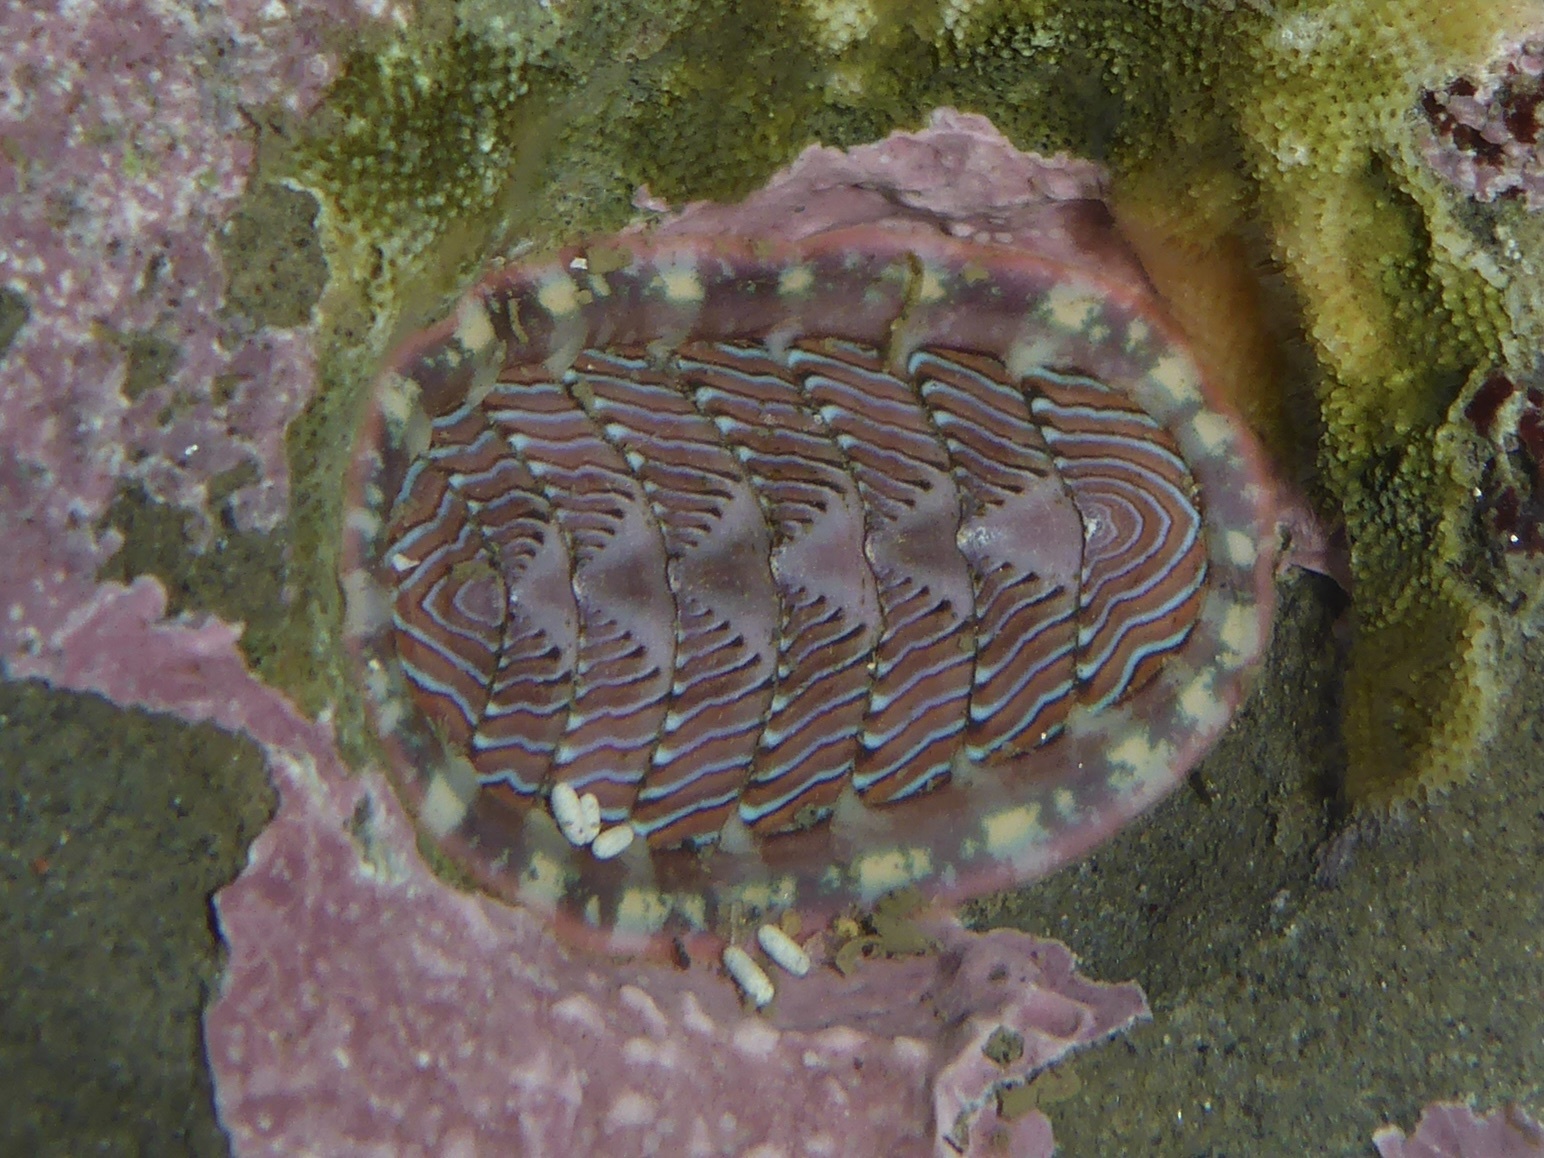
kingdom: Animalia
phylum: Mollusca
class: Polyplacophora
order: Chitonida
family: Tonicellidae
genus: Tonicella
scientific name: Tonicella lineata
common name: Lined chiton
